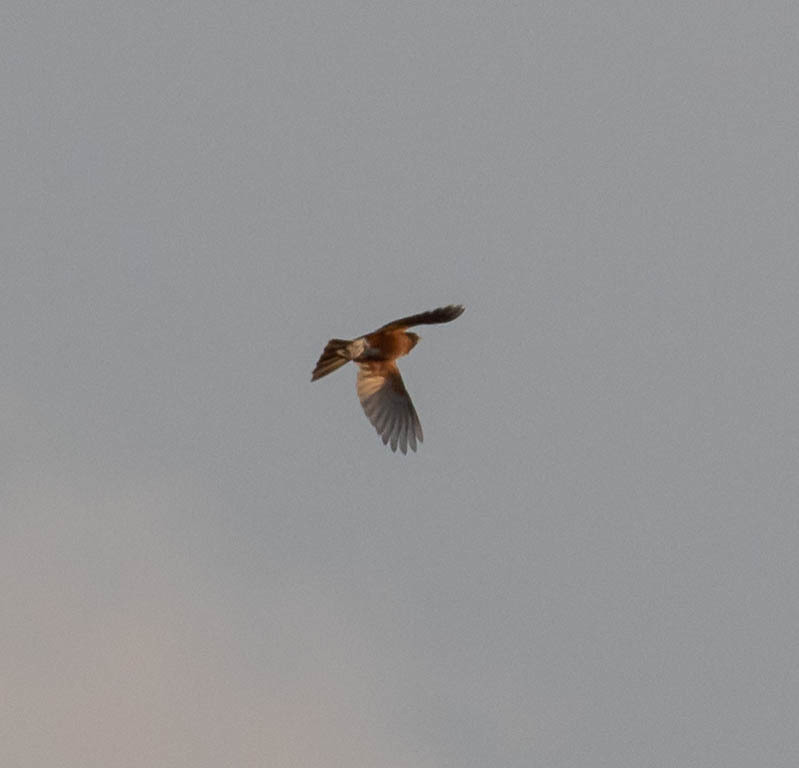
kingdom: Animalia
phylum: Chordata
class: Aves
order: Passeriformes
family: Turdidae
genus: Turdus
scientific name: Turdus migratorius
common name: American robin
